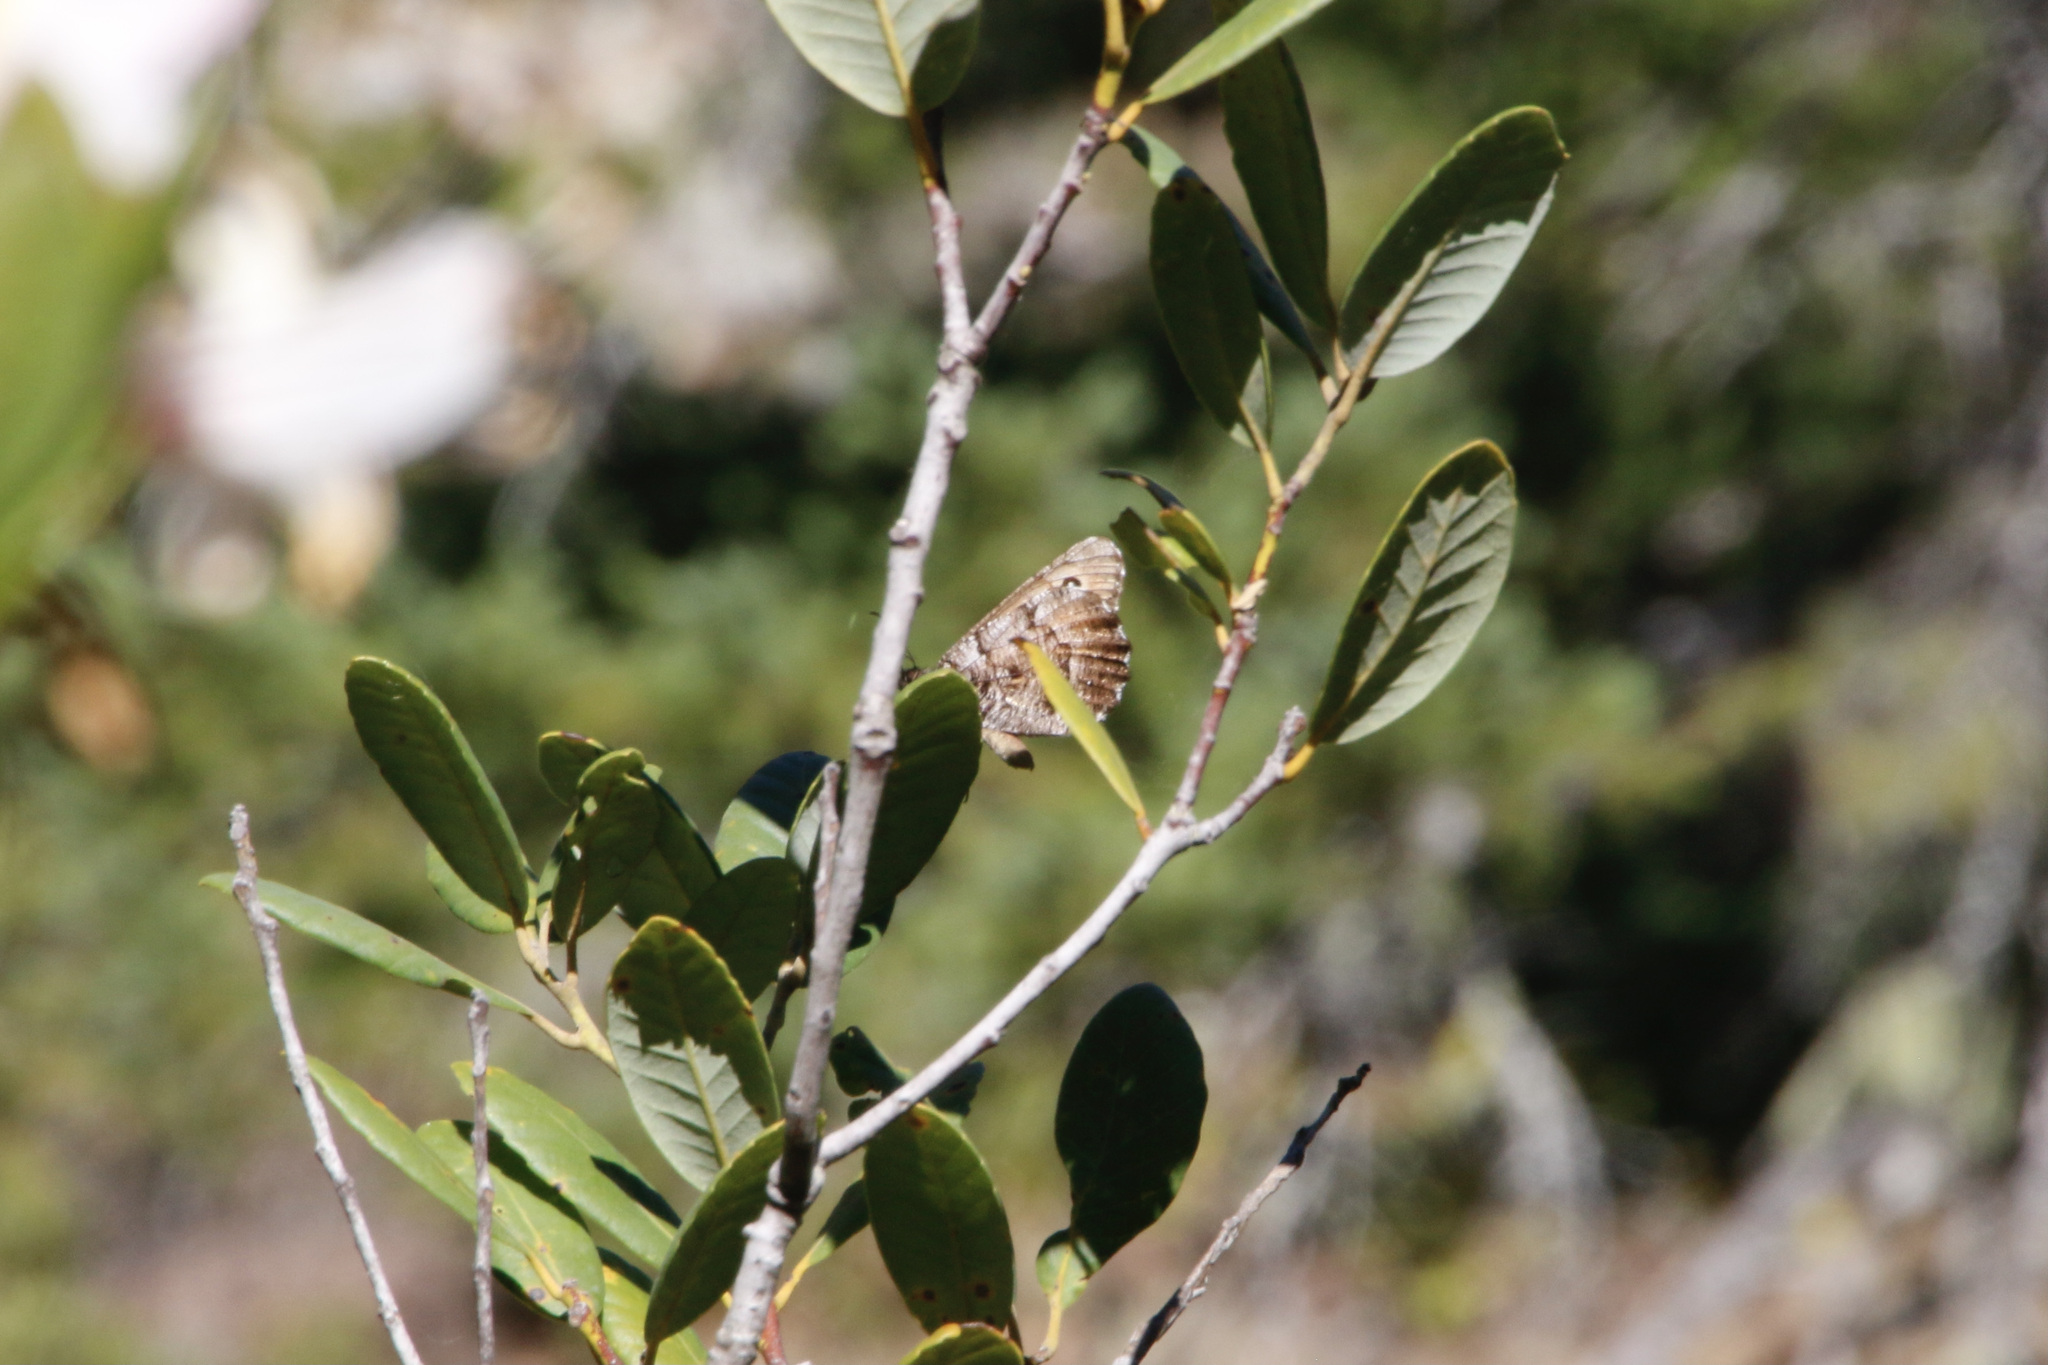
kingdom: Animalia
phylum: Arthropoda
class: Insecta
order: Lepidoptera
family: Nymphalidae
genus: Oeneis
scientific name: Oeneis nevadensis
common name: Great arctic
